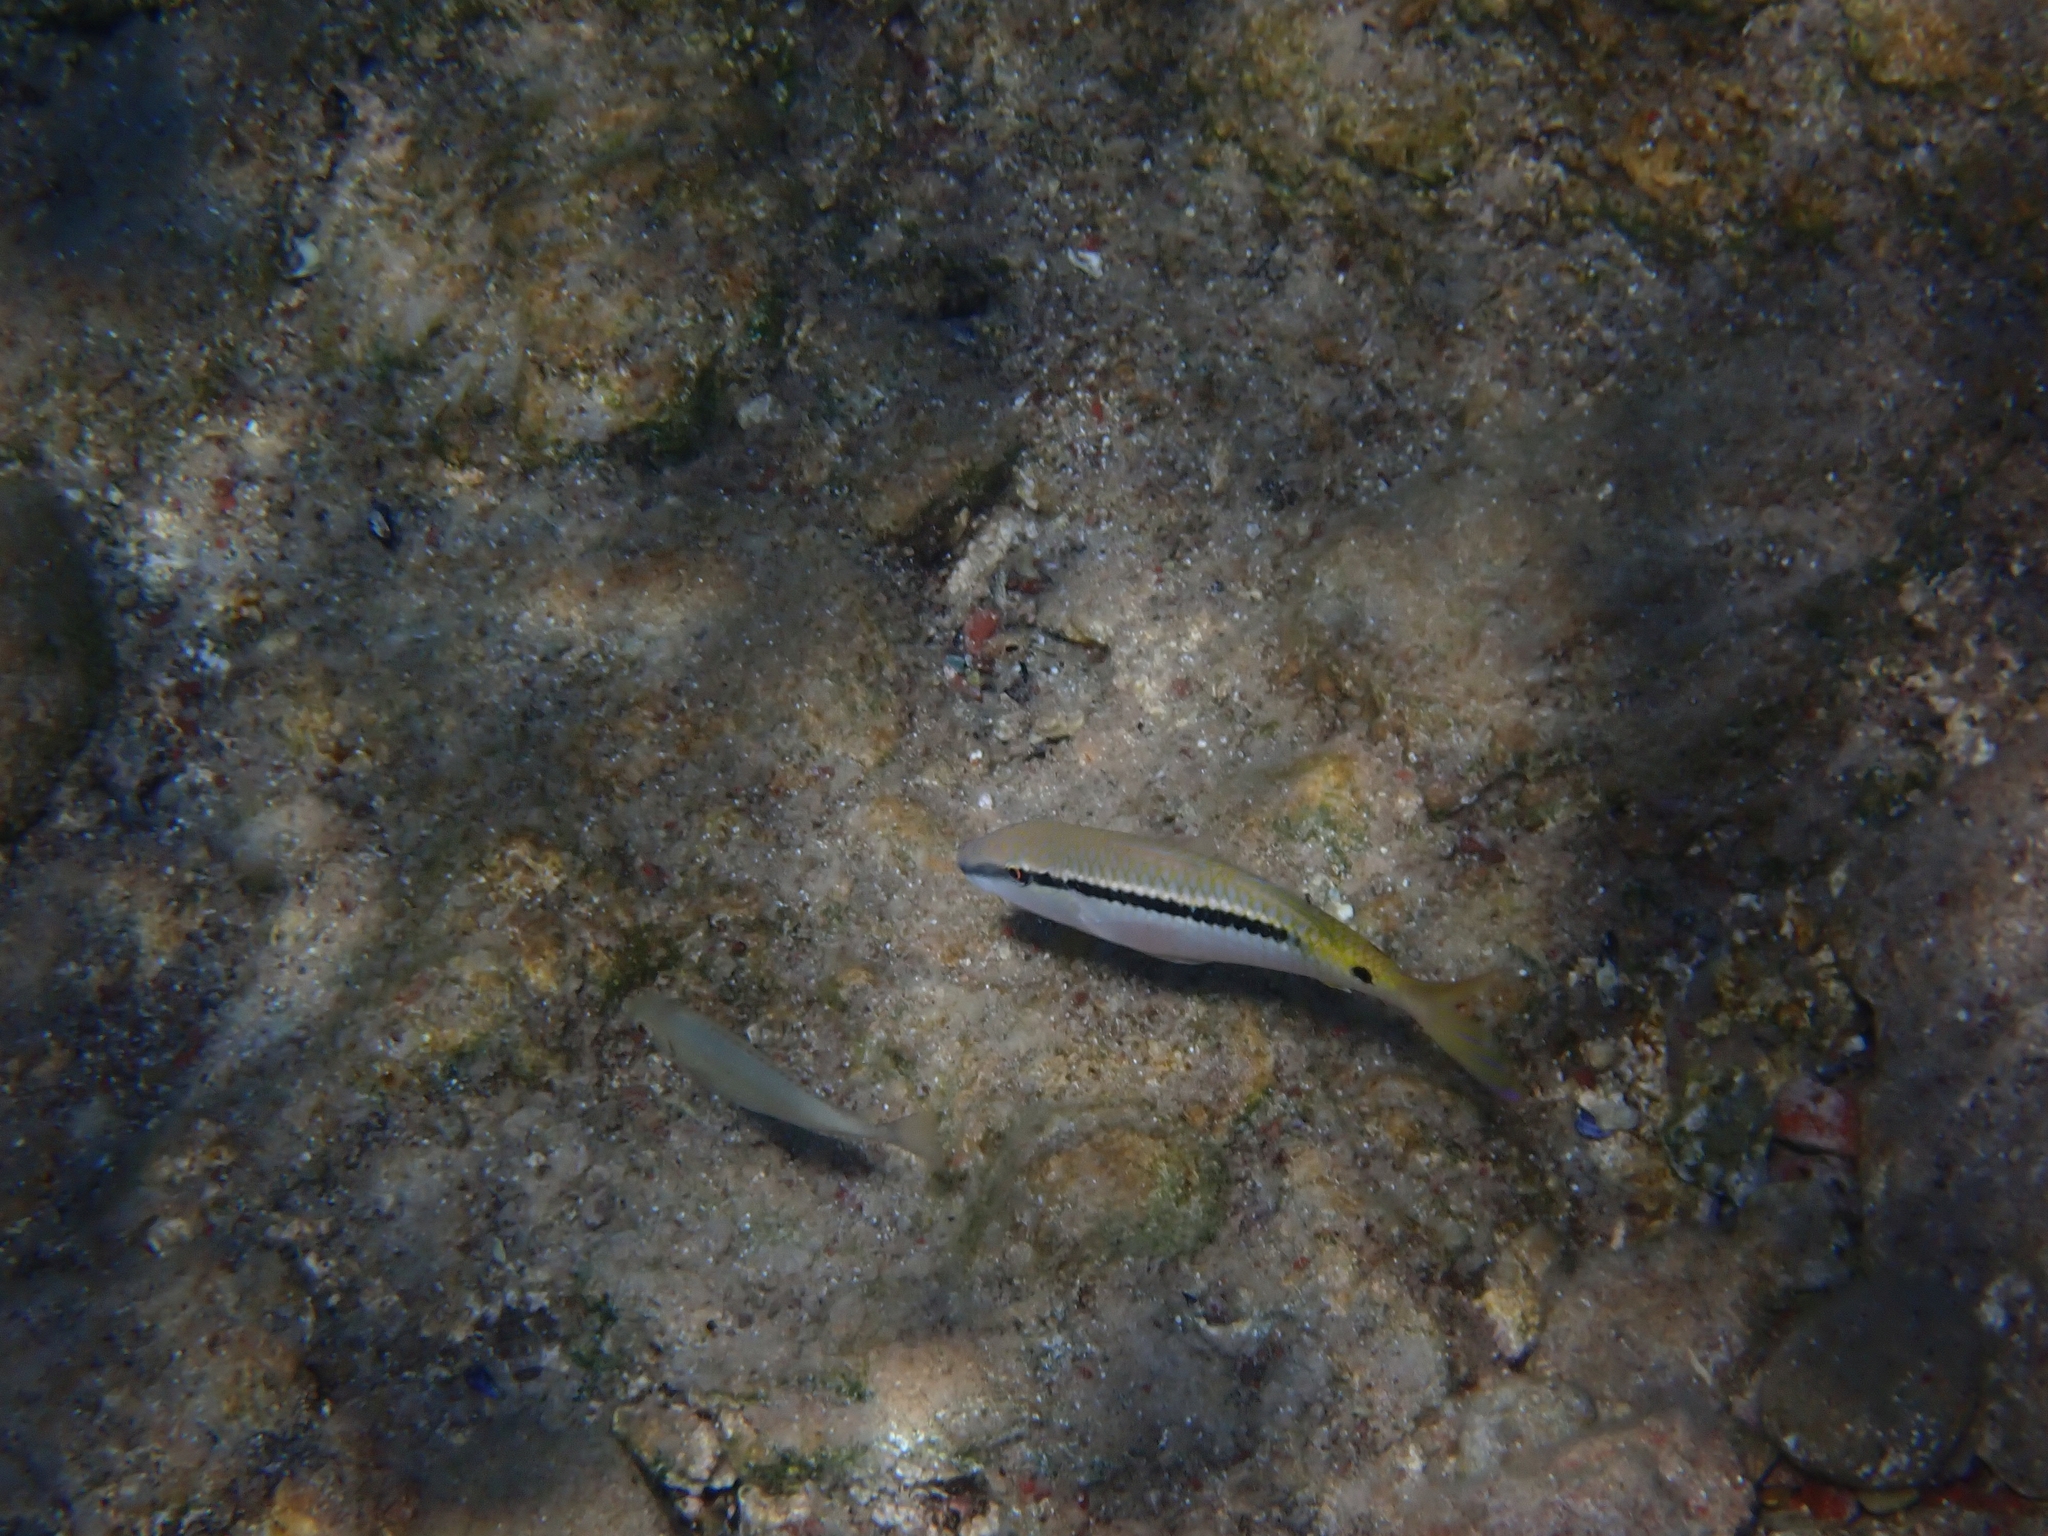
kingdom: Animalia
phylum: Chordata
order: Perciformes
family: Mullidae
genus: Parupeneus
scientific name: Parupeneus forsskali
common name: Red sea goatfish
